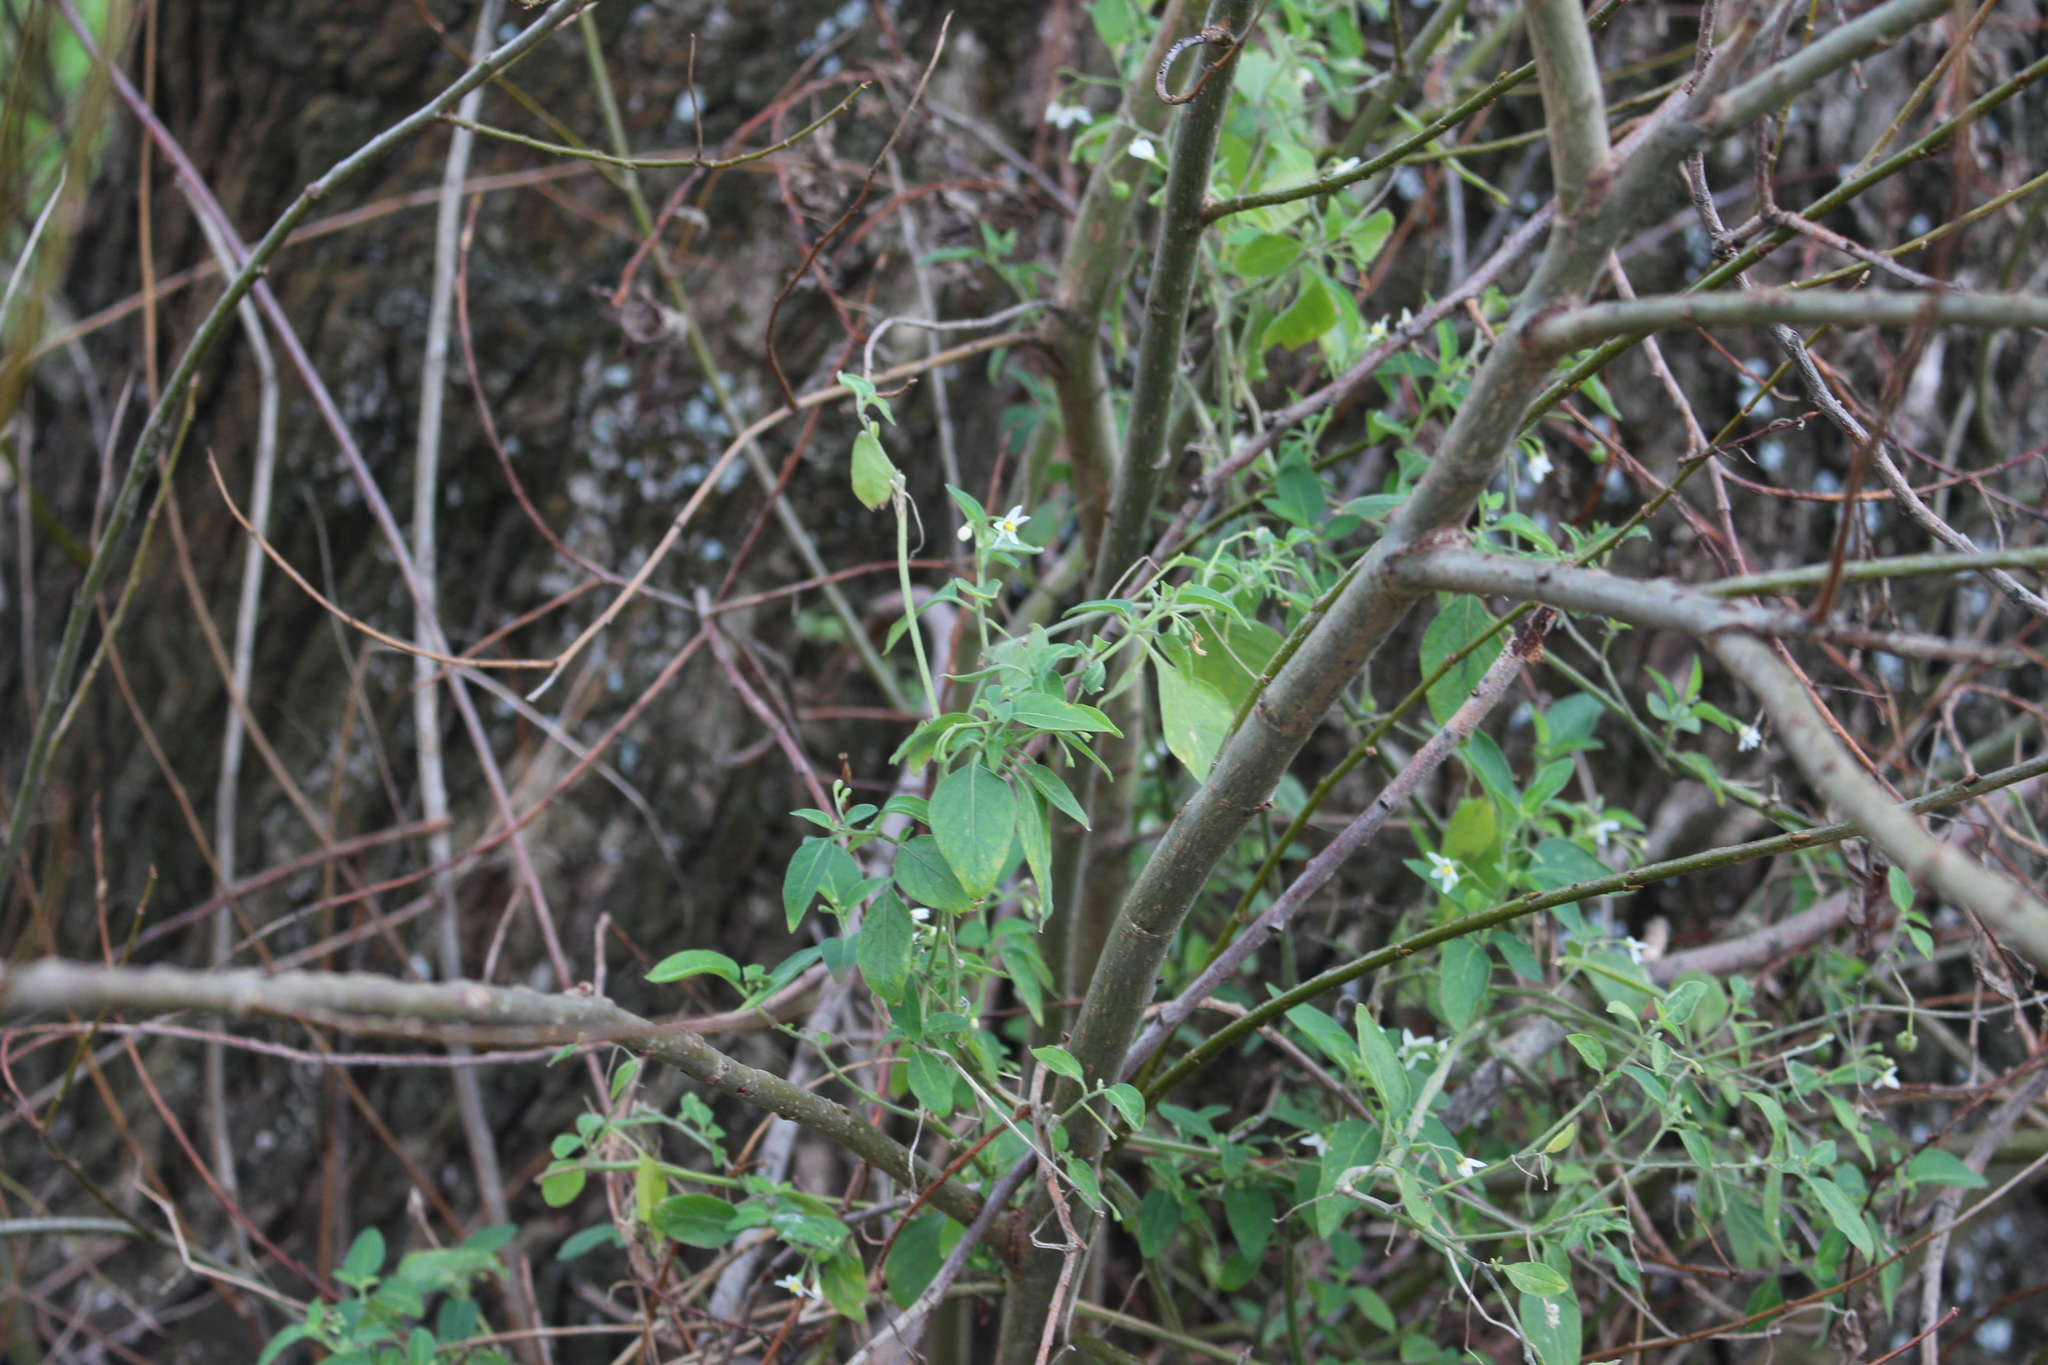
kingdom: Plantae
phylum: Tracheophyta
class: Magnoliopsida
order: Solanales
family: Solanaceae
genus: Solanum
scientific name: Solanum chenopodioides
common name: Tall nightshade
